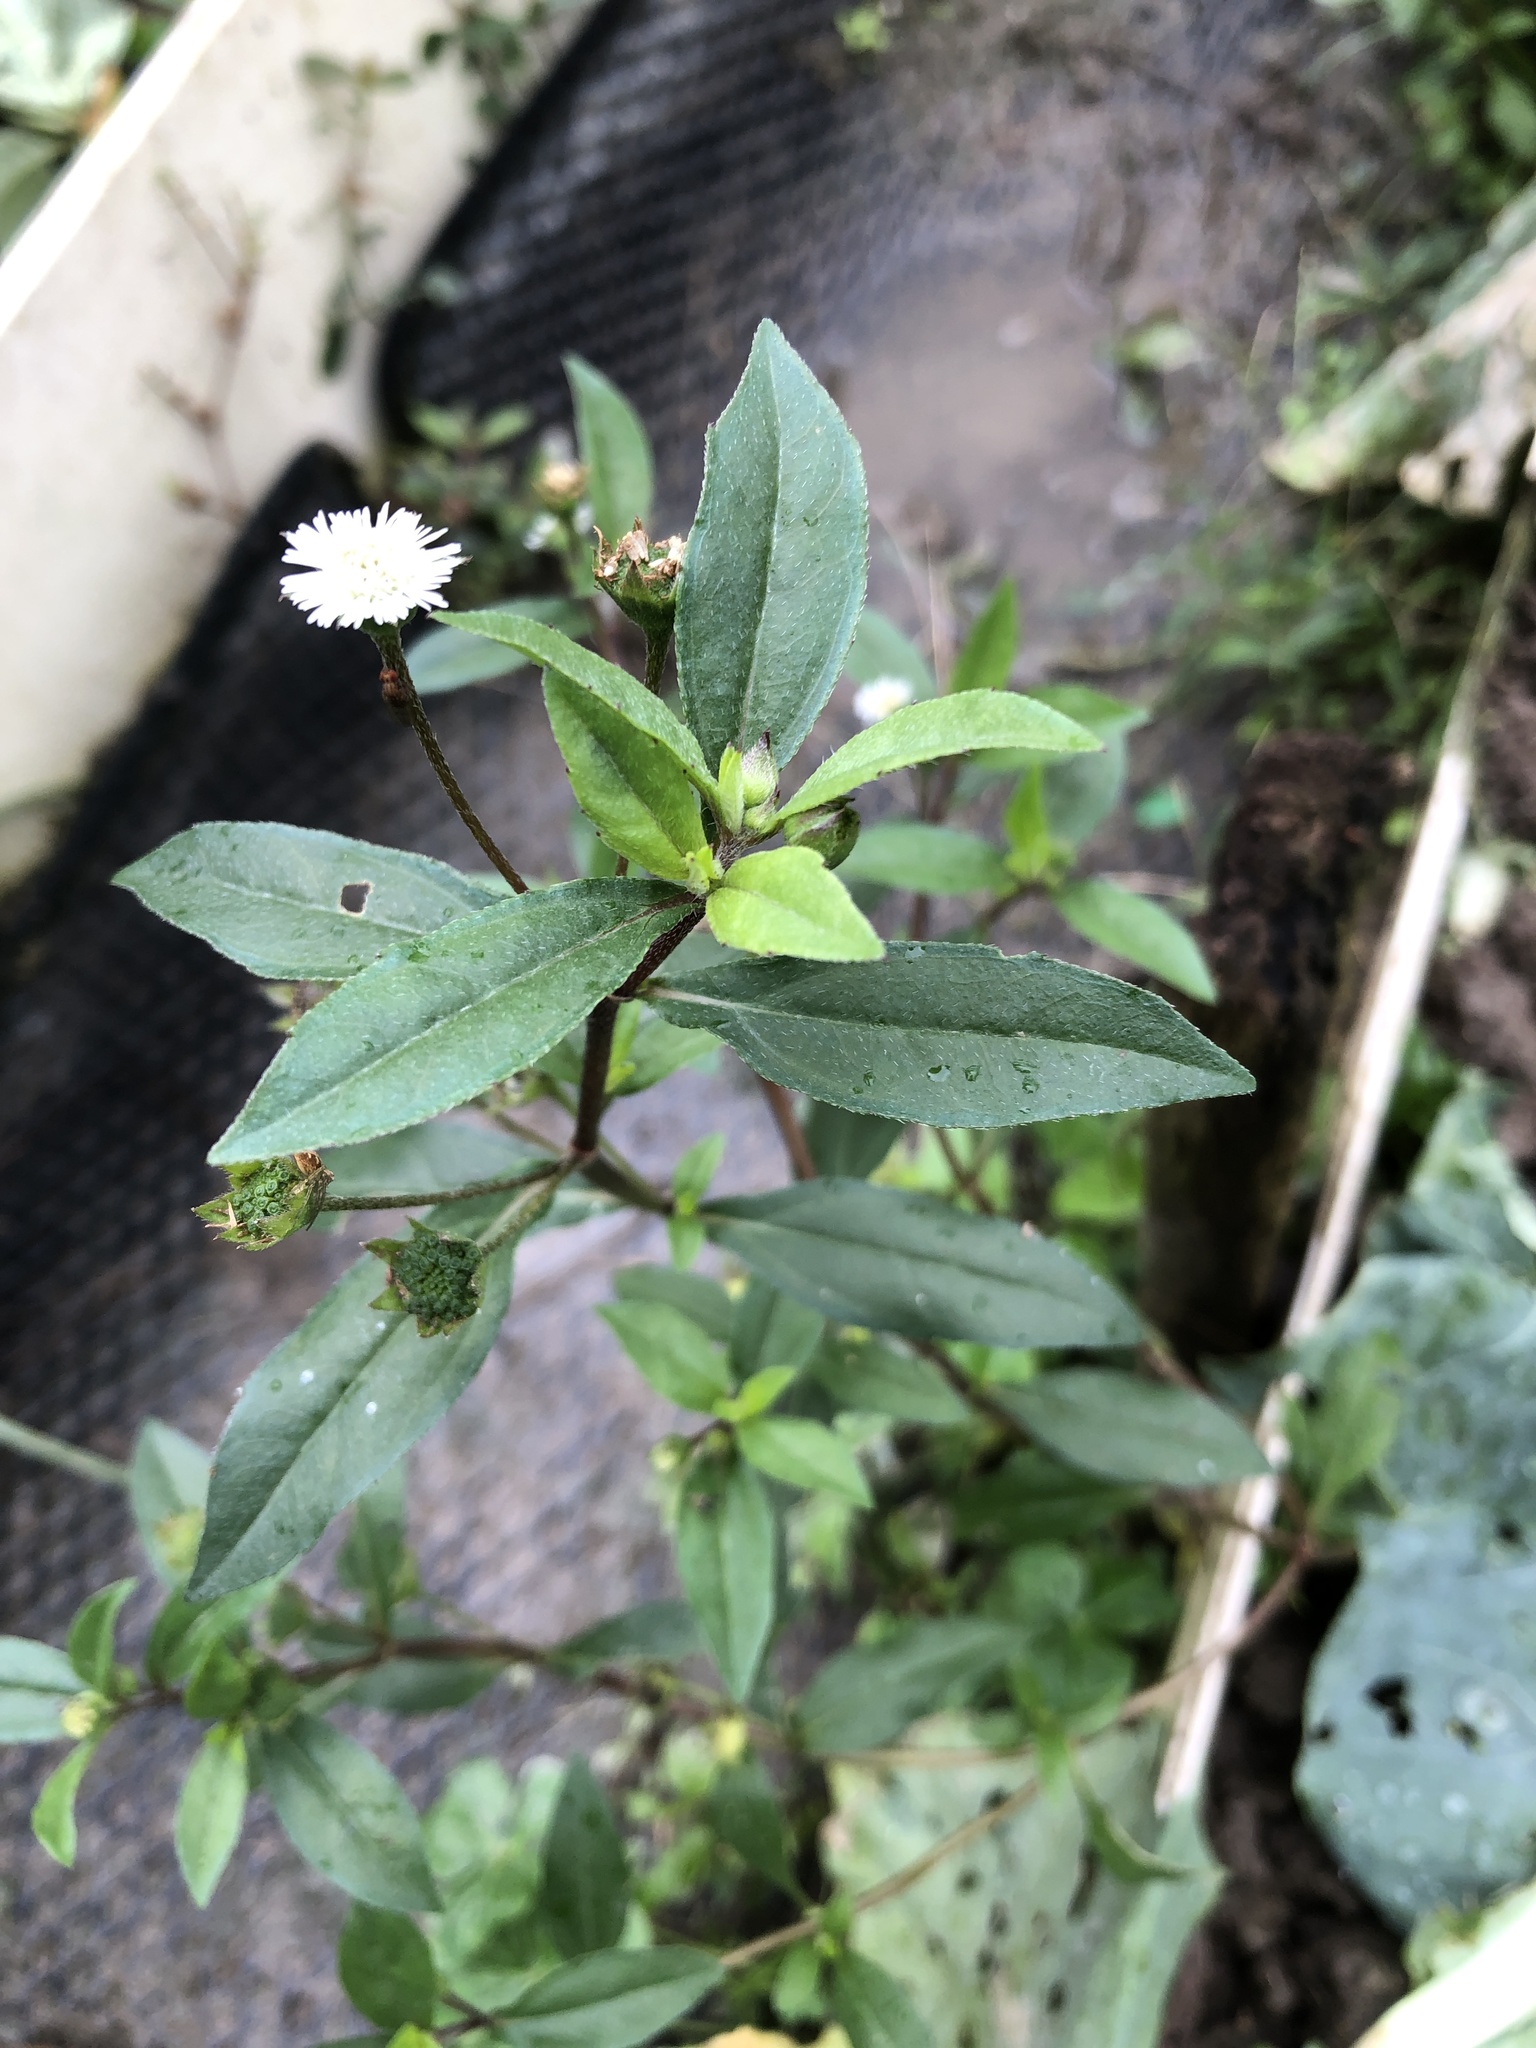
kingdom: Plantae
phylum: Tracheophyta
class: Magnoliopsida
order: Asterales
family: Asteraceae
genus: Eclipta
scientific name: Eclipta prostrata
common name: False daisy
